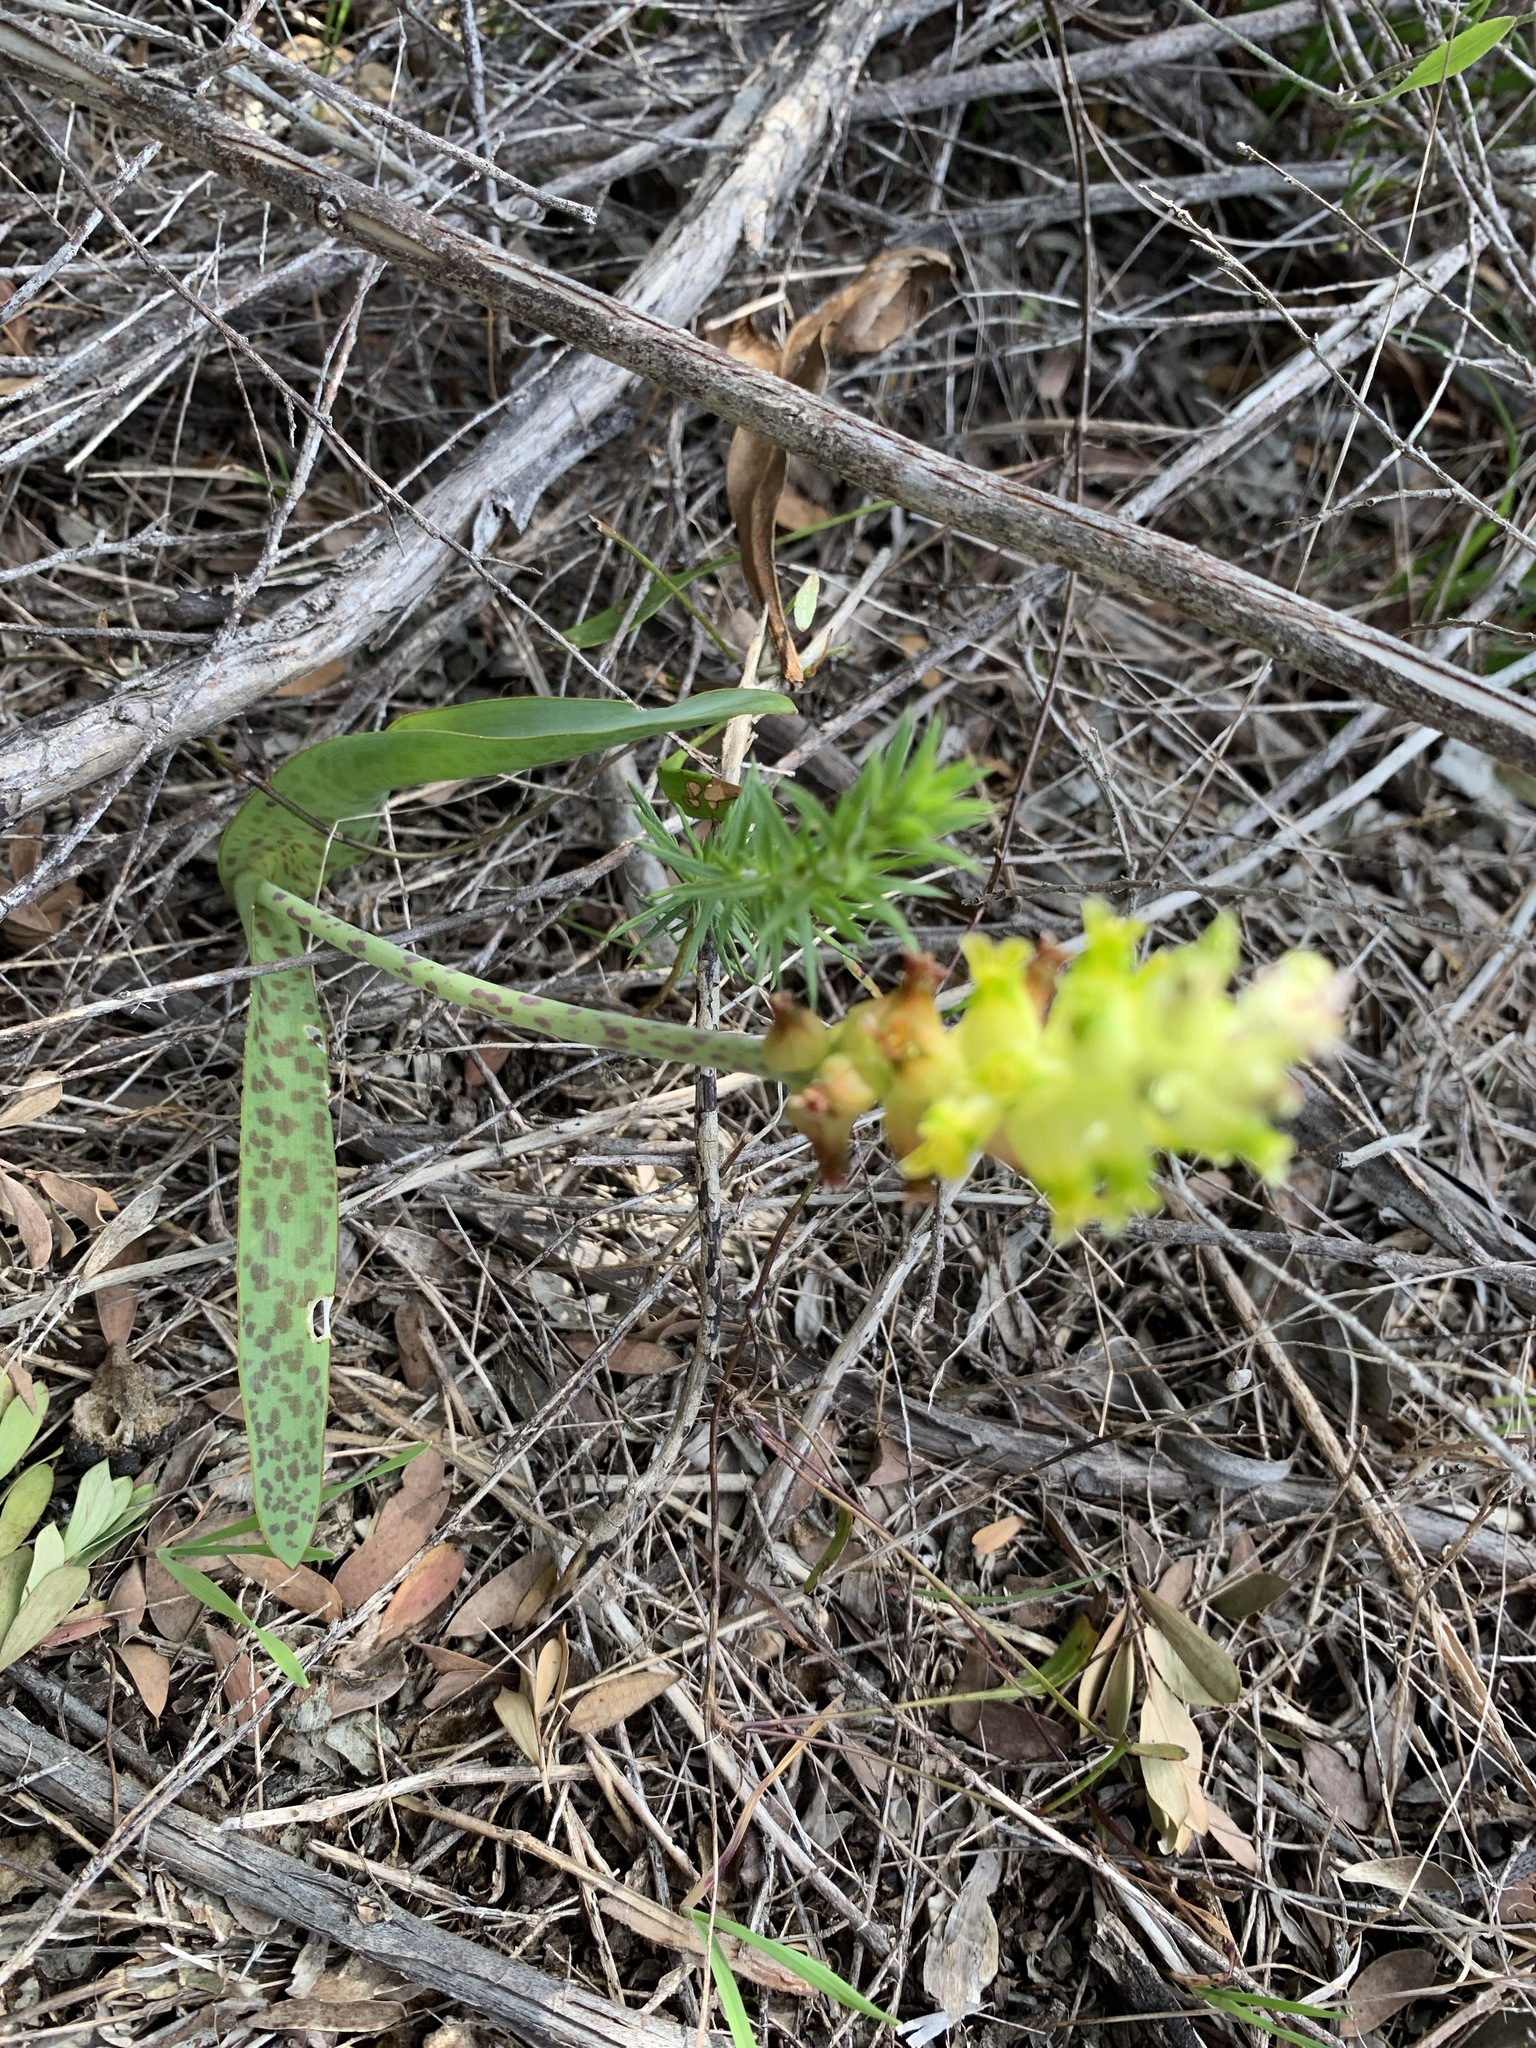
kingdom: Plantae
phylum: Tracheophyta
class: Liliopsida
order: Asparagales
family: Asparagaceae
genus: Lachenalia
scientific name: Lachenalia lutea
